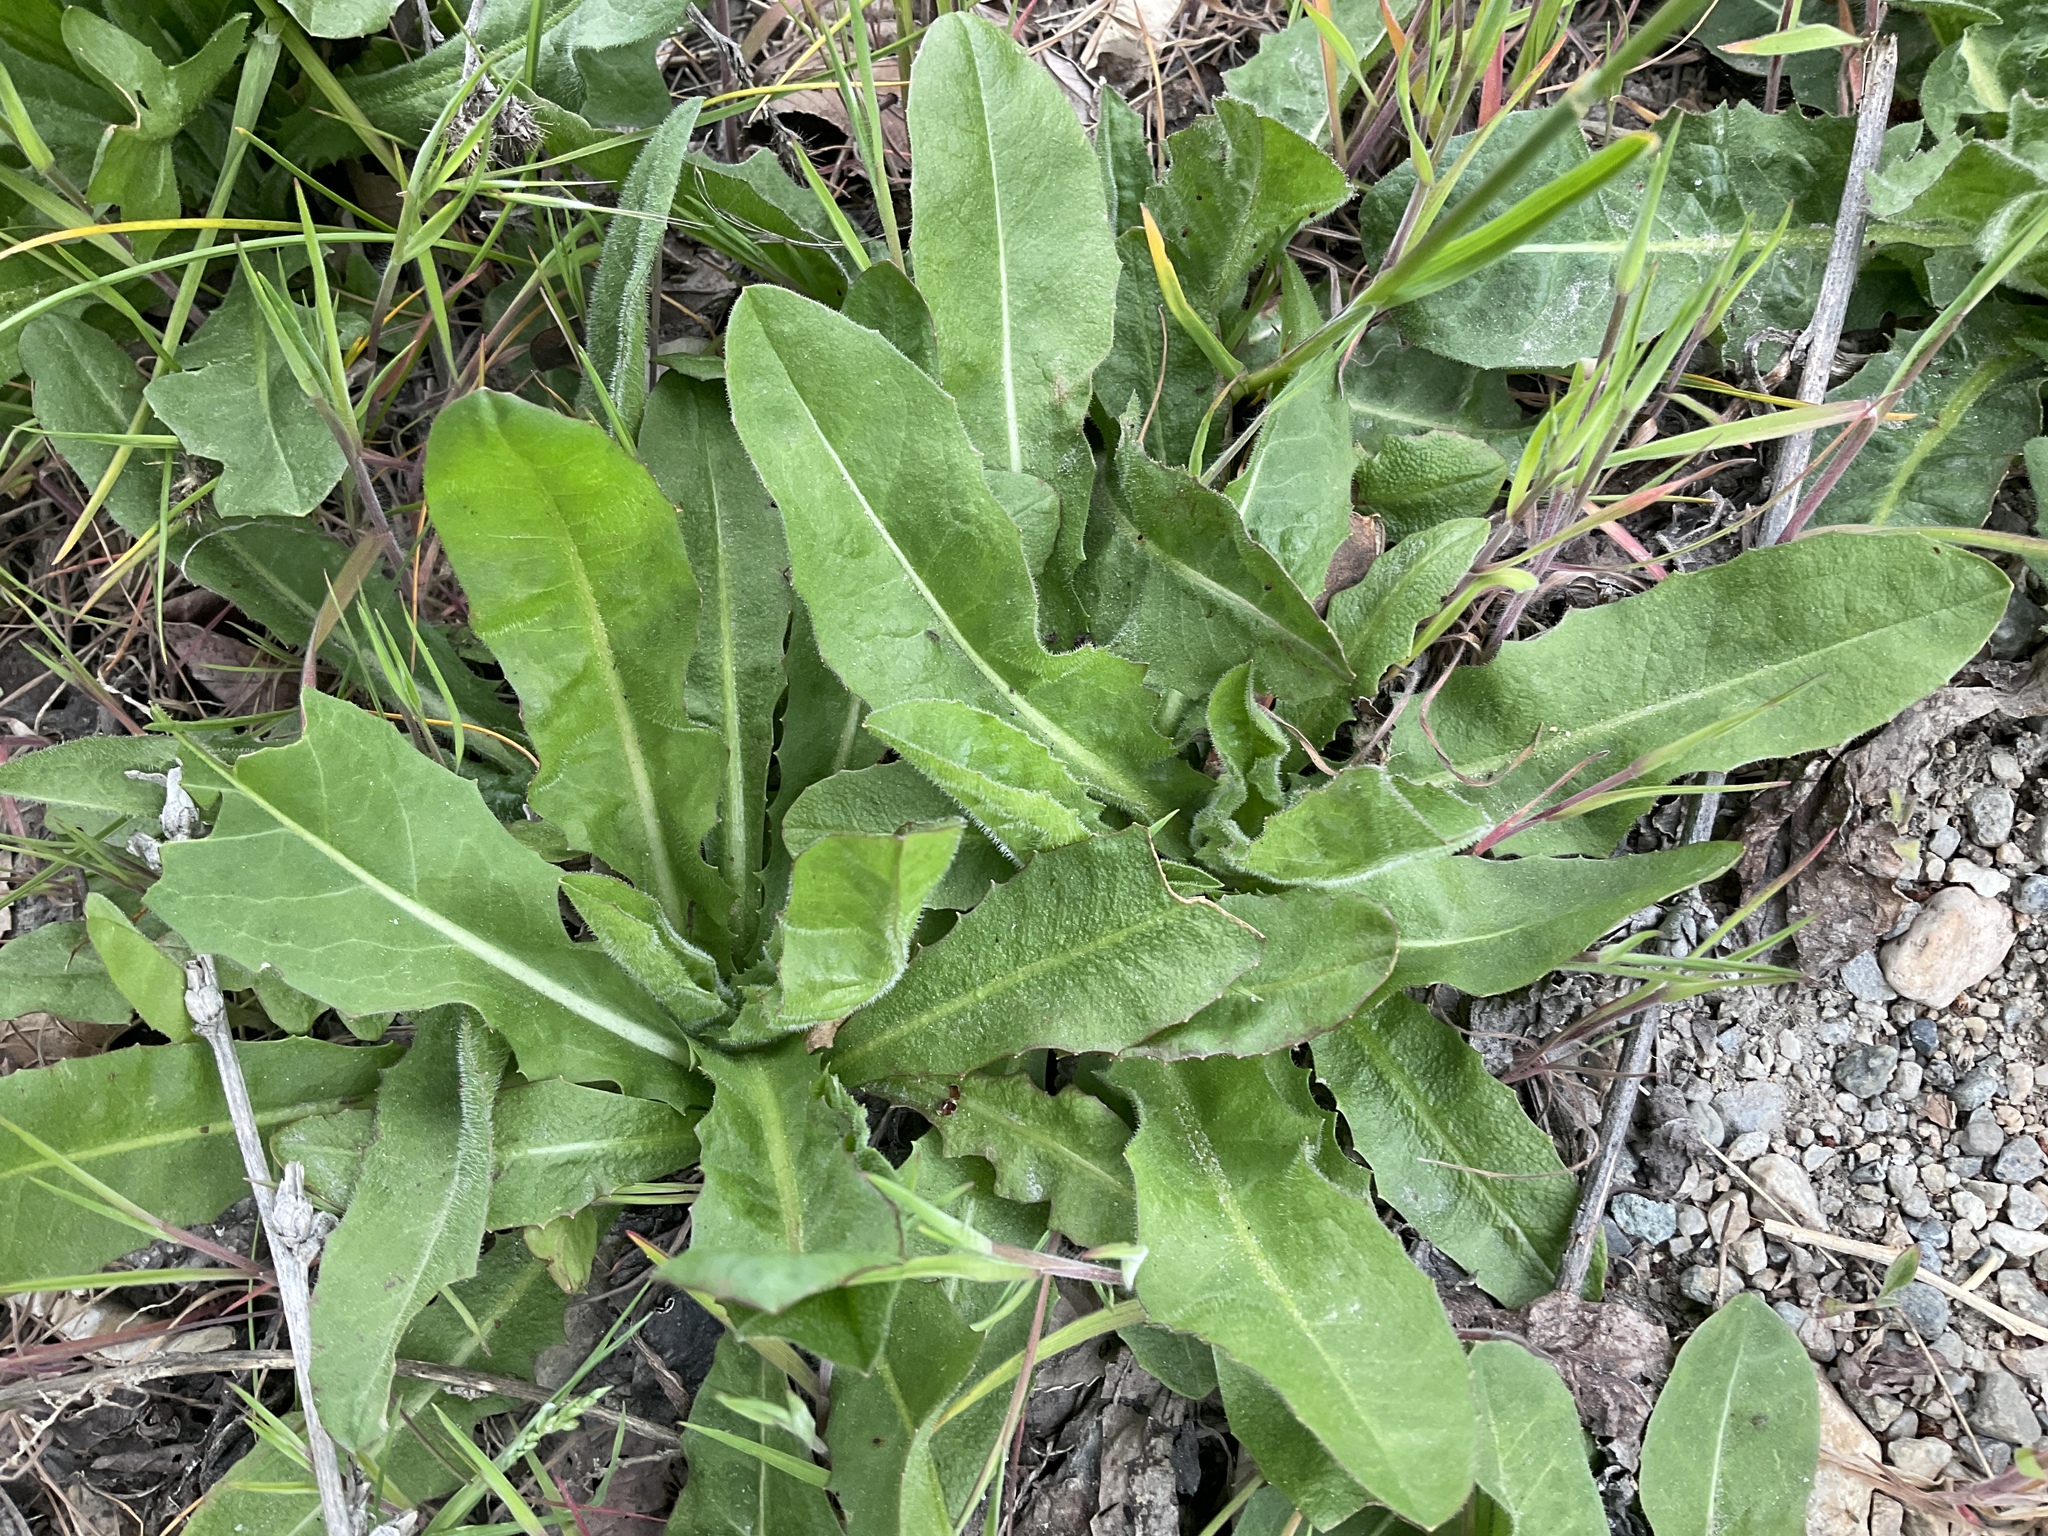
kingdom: Plantae
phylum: Tracheophyta
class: Magnoliopsida
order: Asterales
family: Asteraceae
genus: Cichorium
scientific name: Cichorium intybus
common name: Chicory
